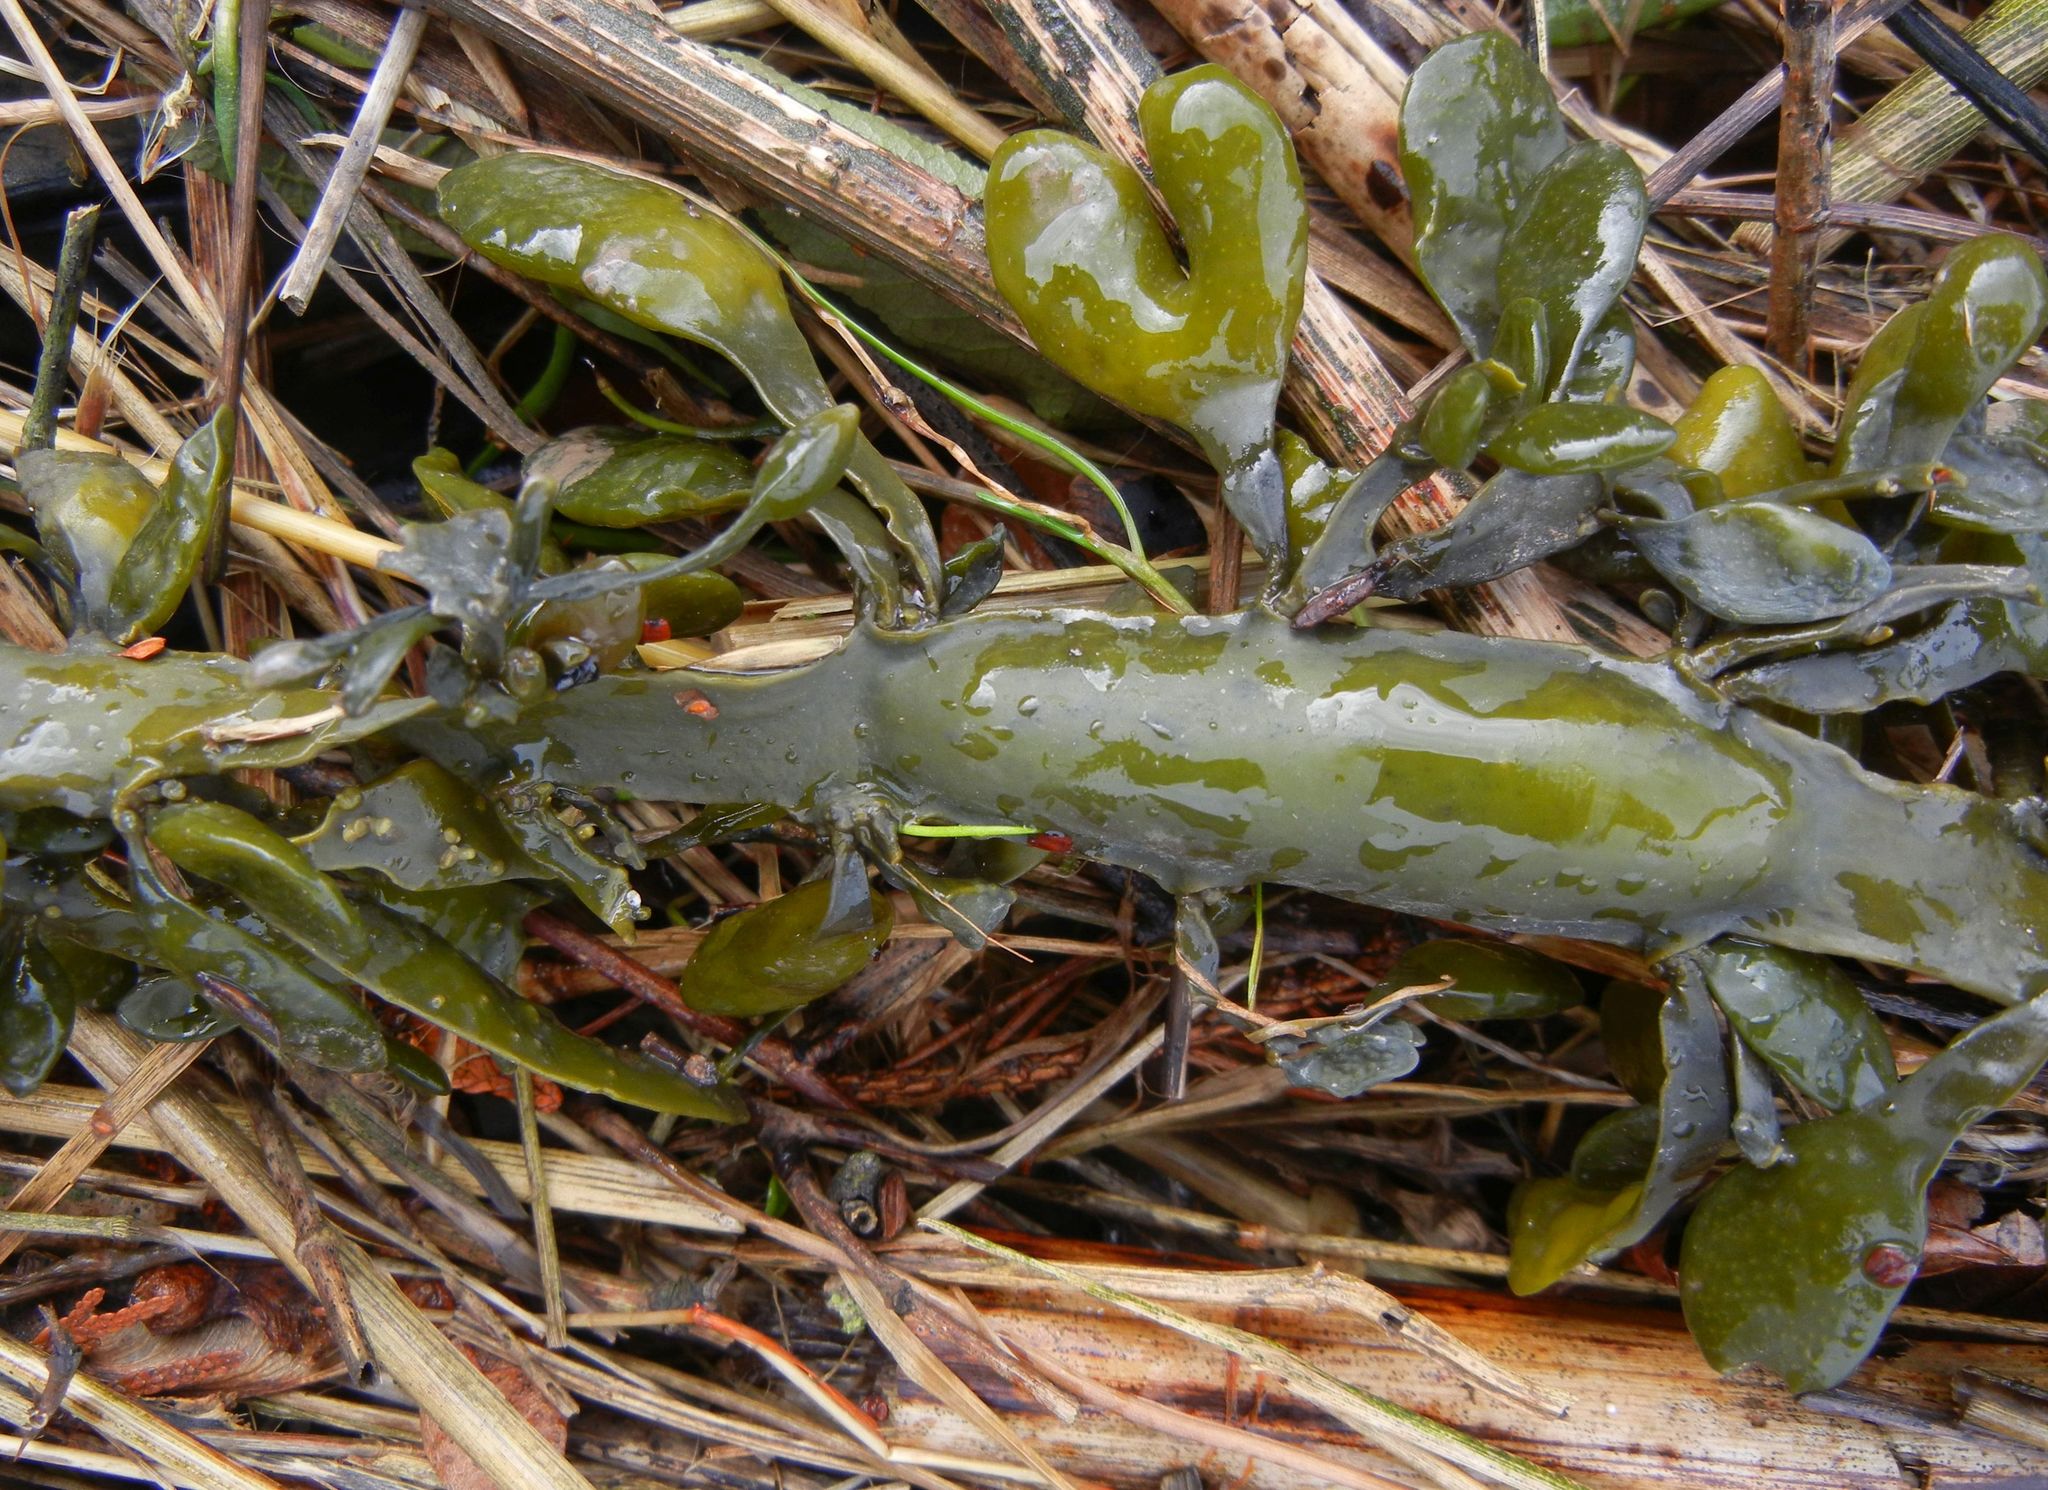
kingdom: Chromista
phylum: Ochrophyta
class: Phaeophyceae
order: Fucales
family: Fucaceae
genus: Ascophyllum
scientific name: Ascophyllum nodosum
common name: Knotted wrack
